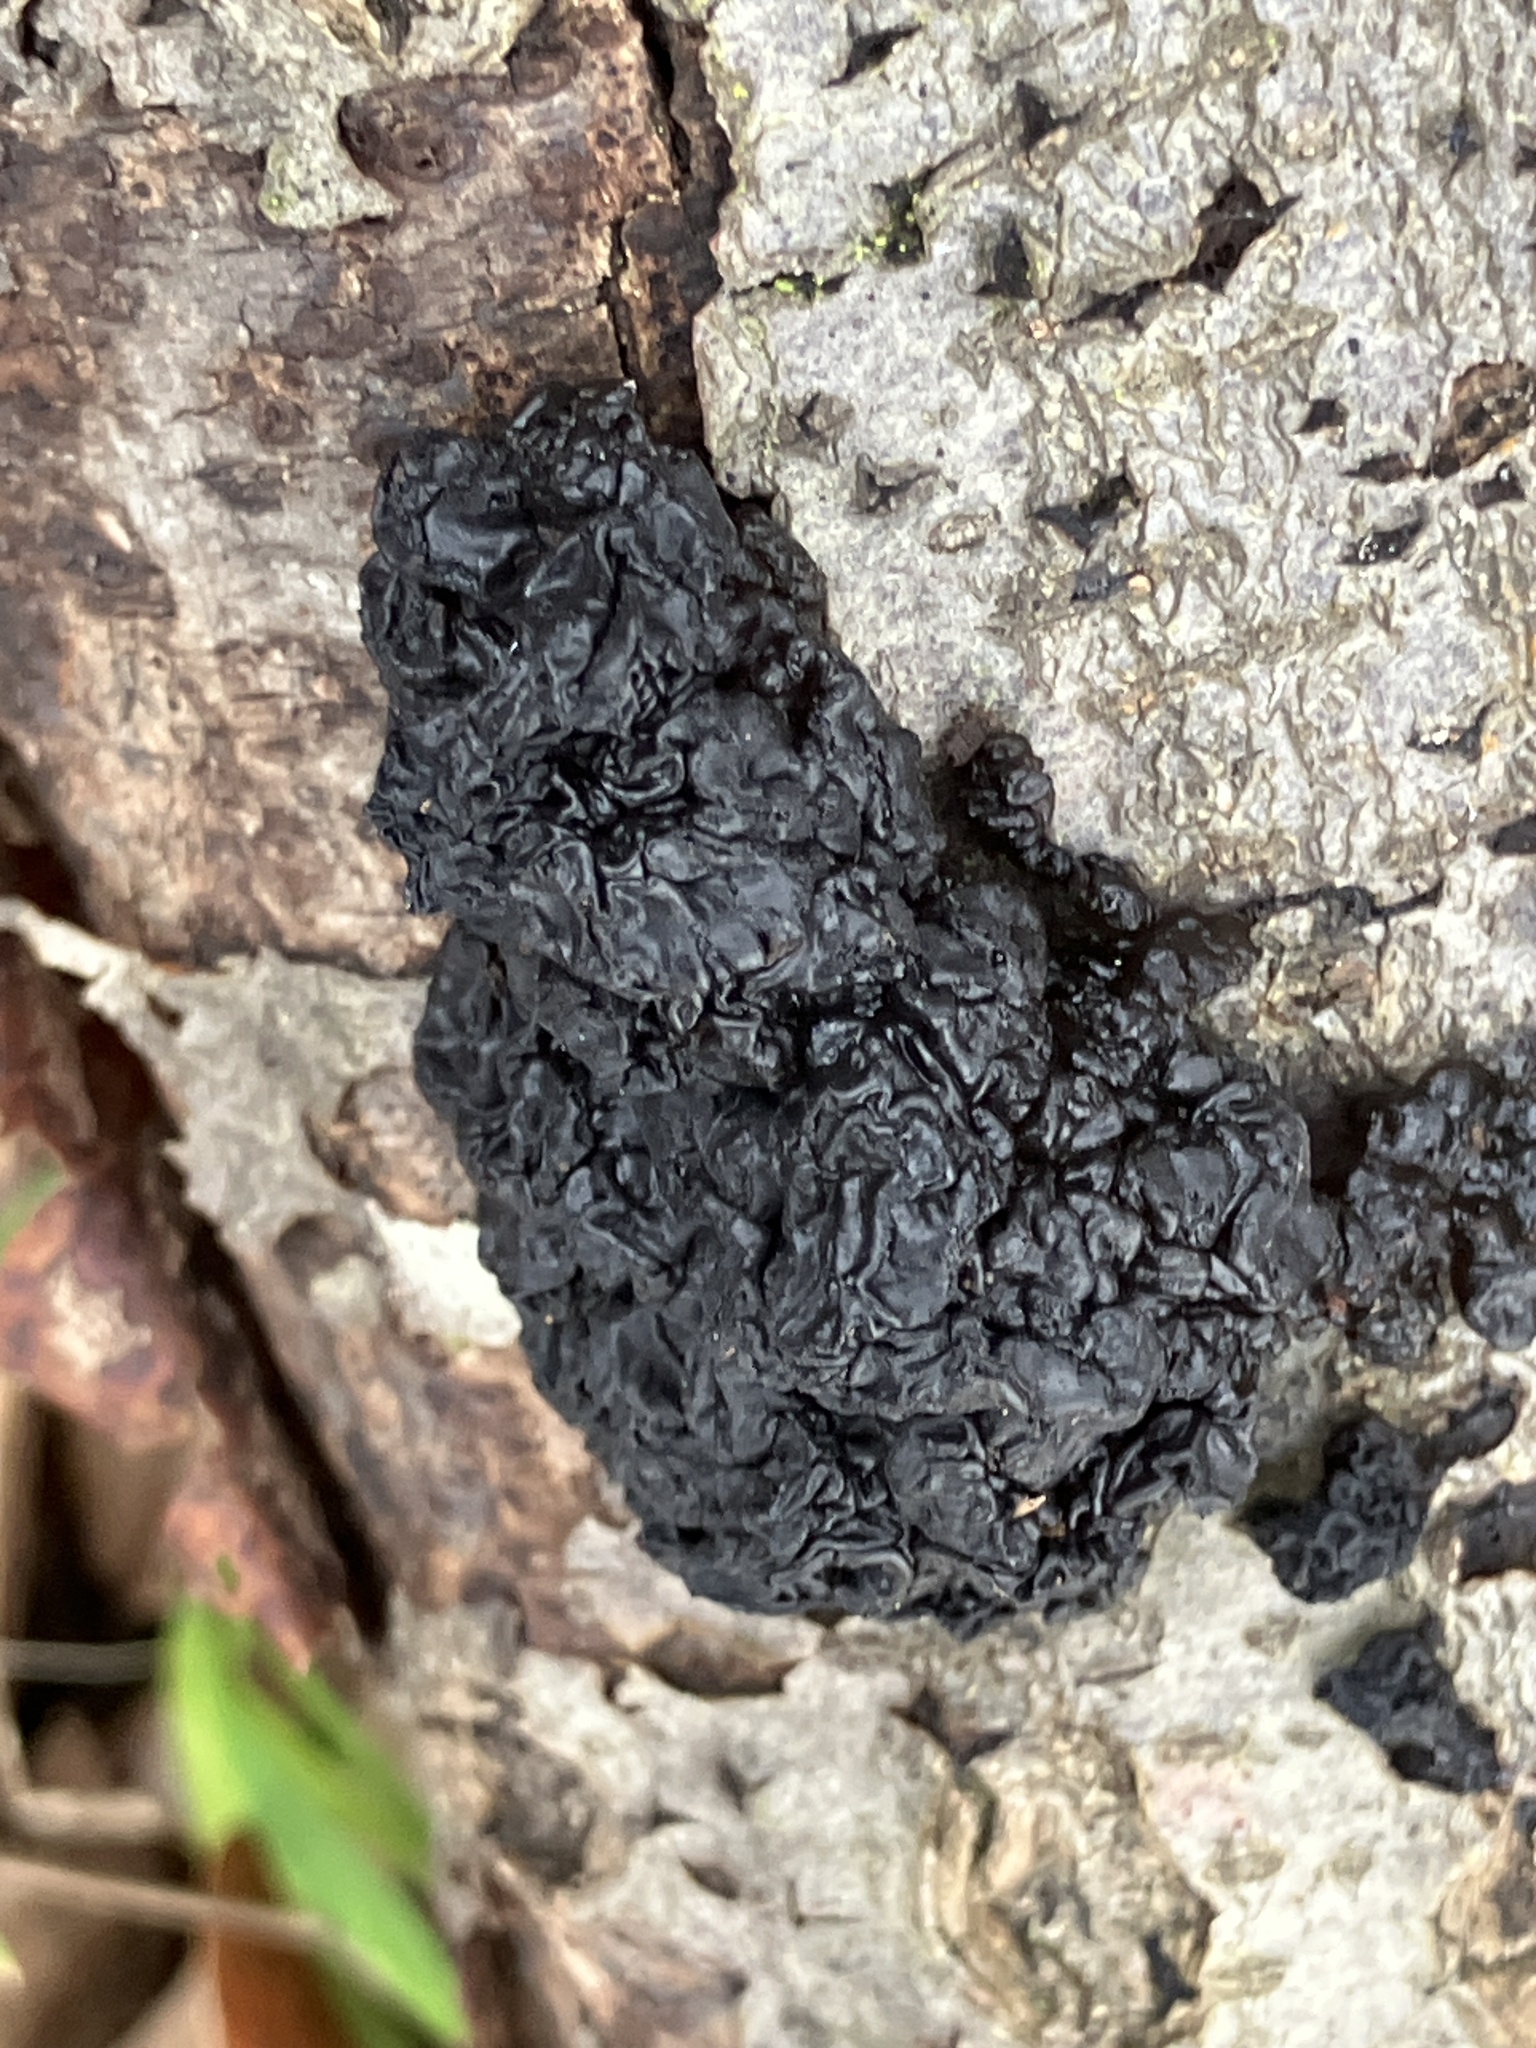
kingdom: Fungi
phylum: Basidiomycota
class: Agaricomycetes
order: Auriculariales
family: Auriculariaceae
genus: Exidia
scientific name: Exidia nigricans
